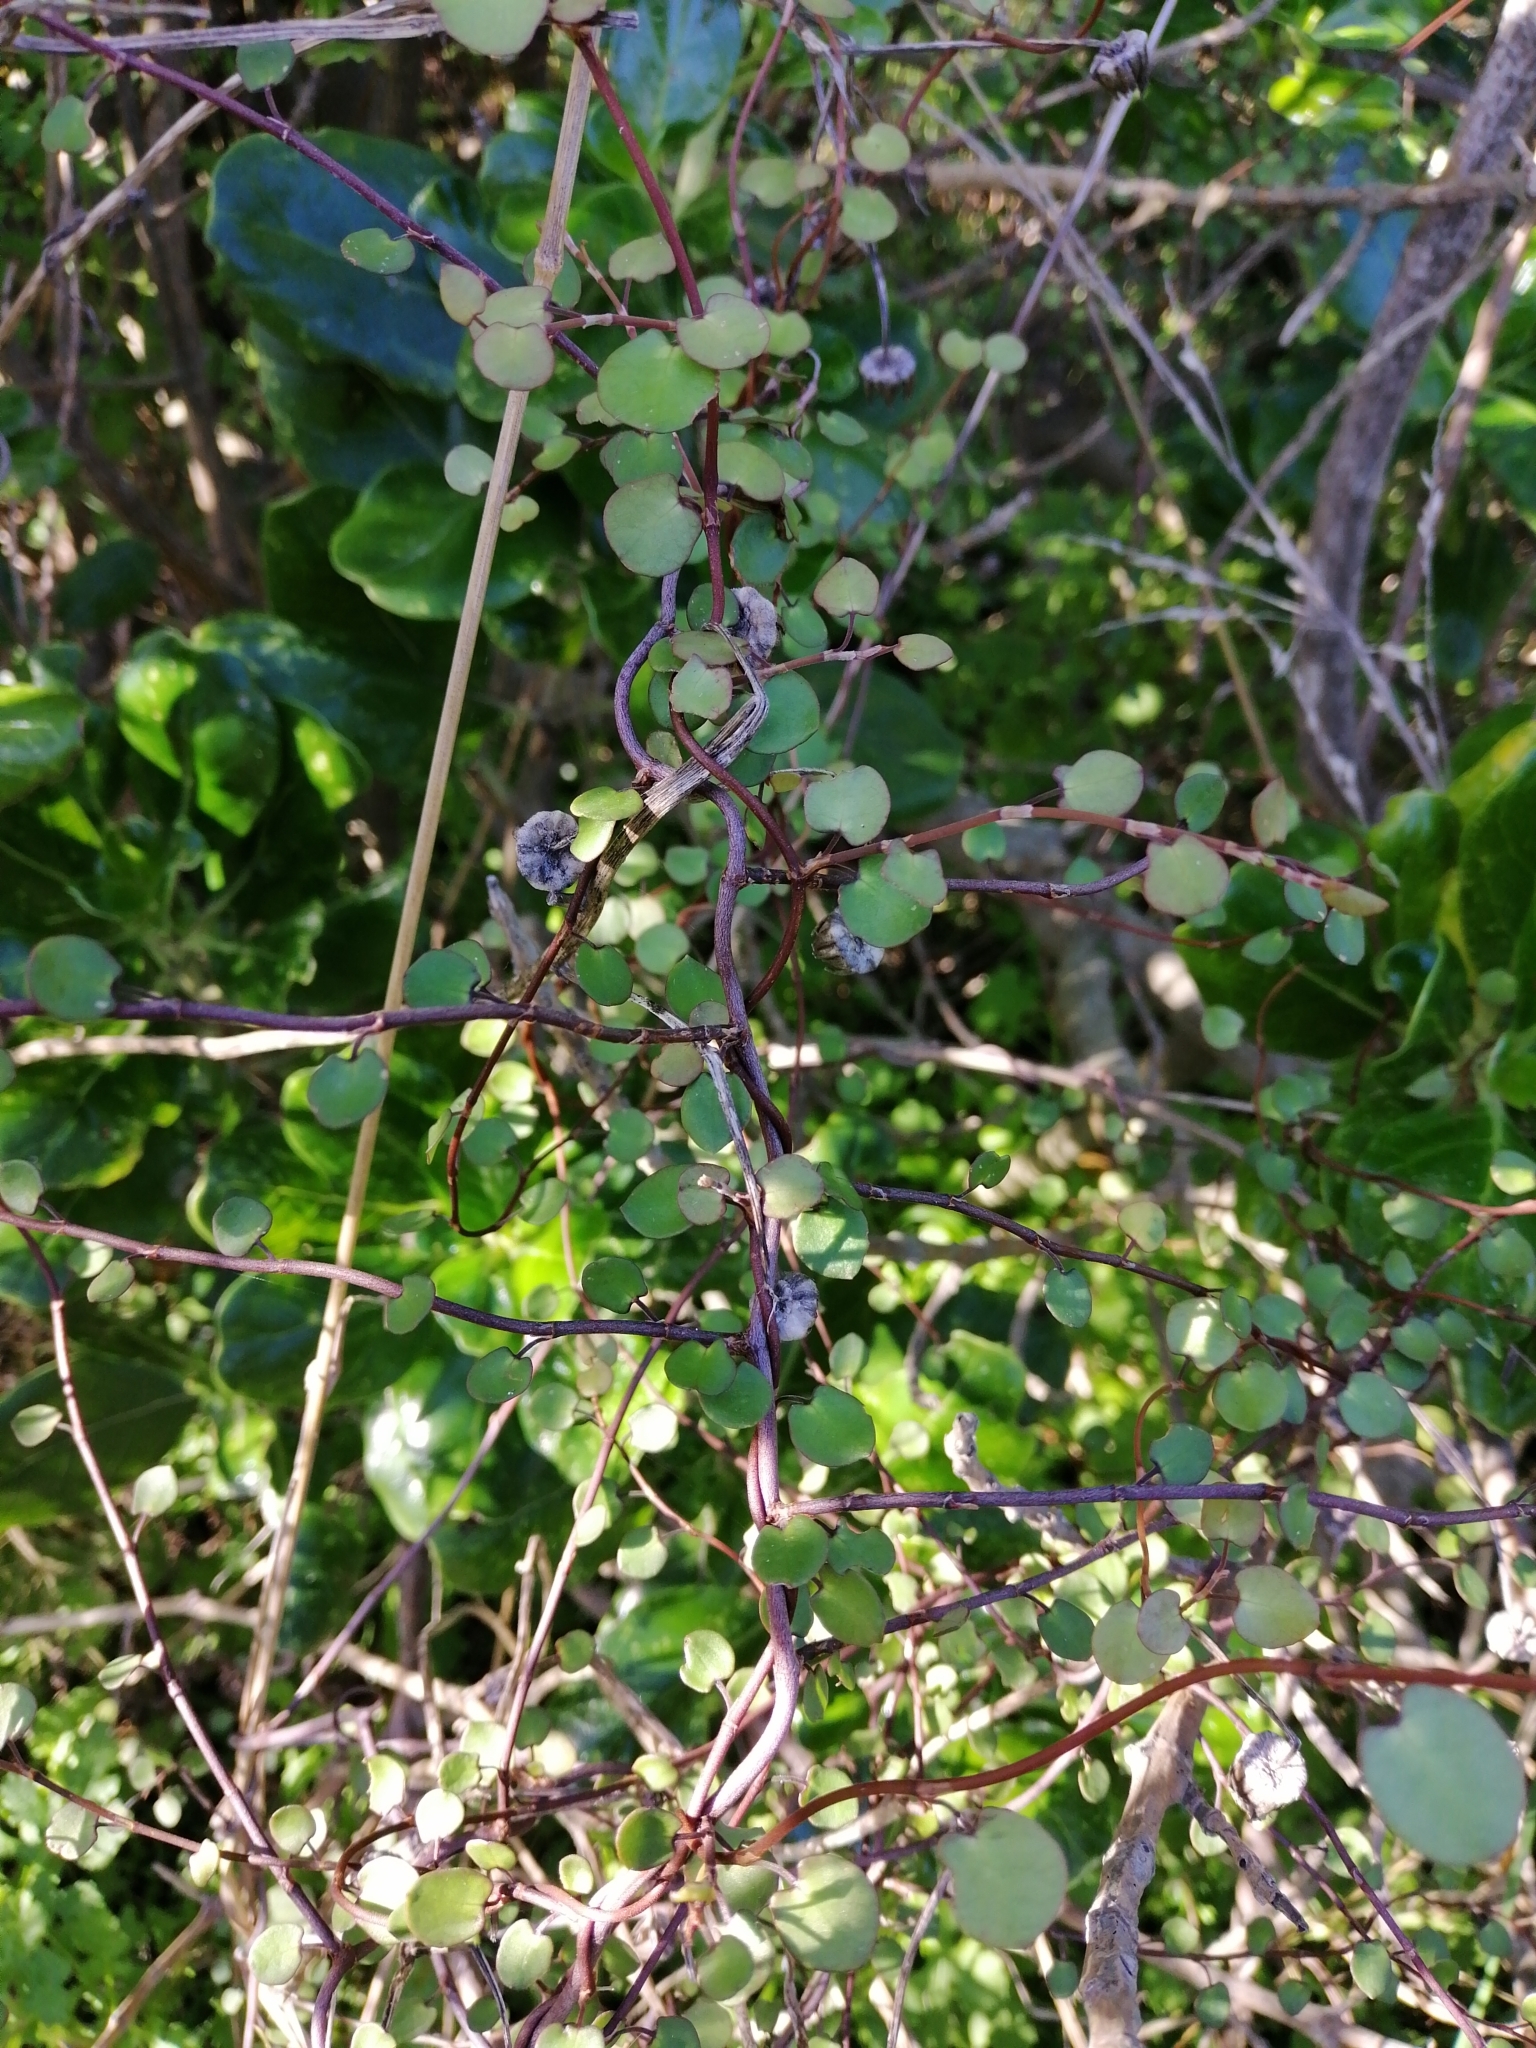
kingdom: Plantae
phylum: Tracheophyta
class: Magnoliopsida
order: Caryophyllales
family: Polygonaceae
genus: Muehlenbeckia
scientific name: Muehlenbeckia complexa
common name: Wireplant
